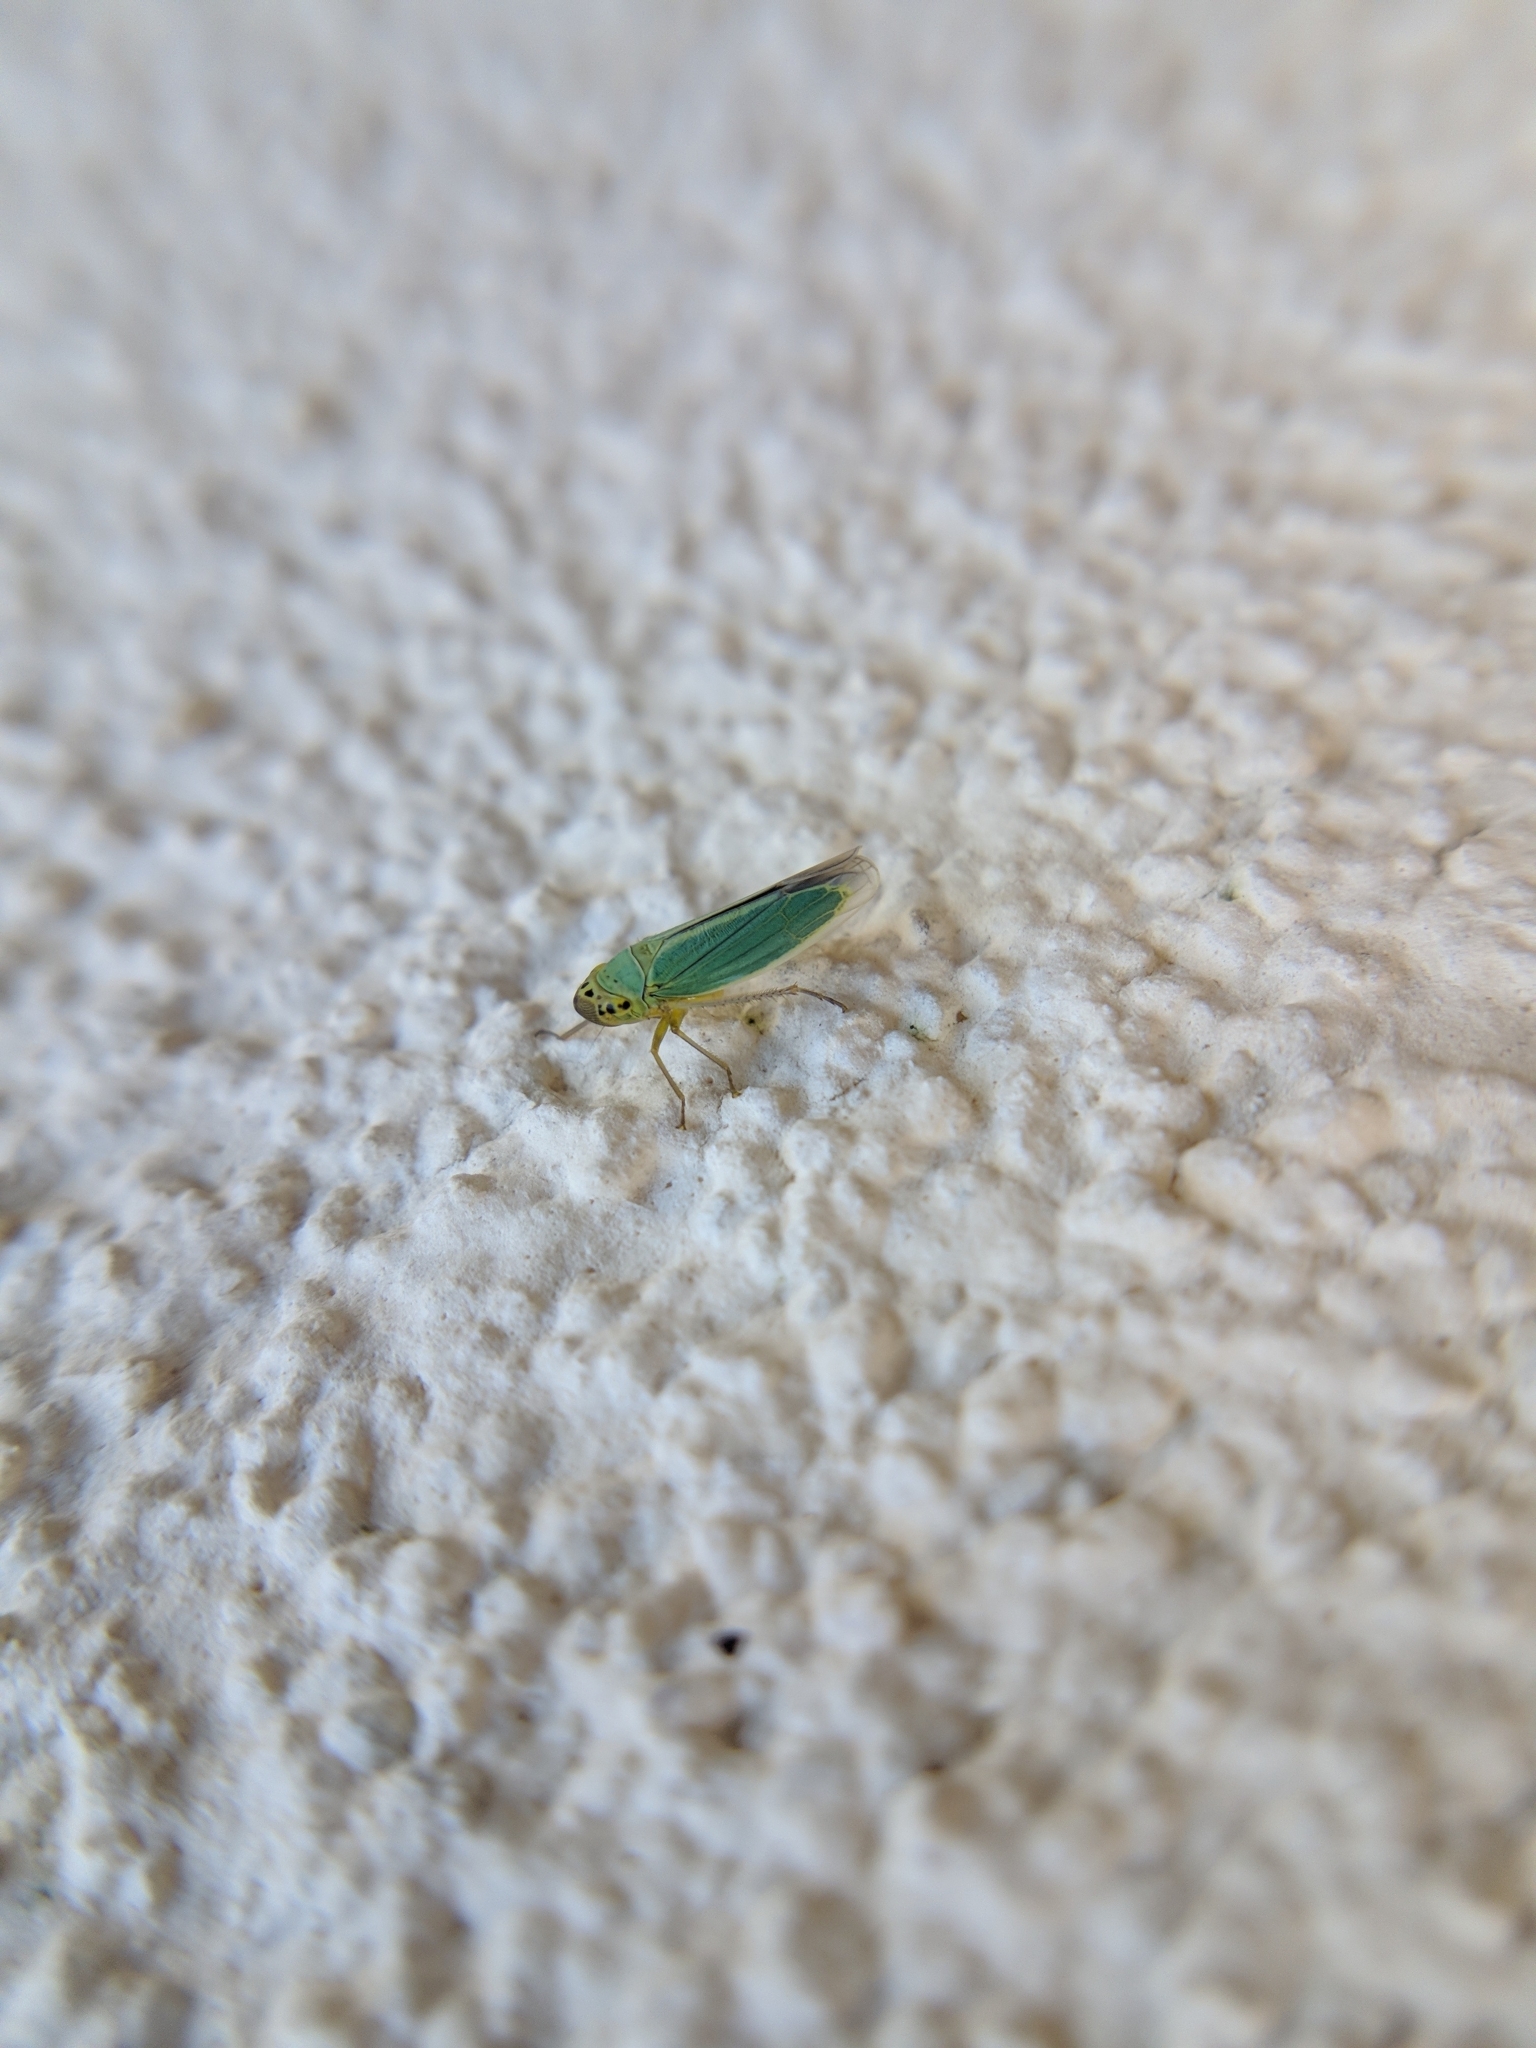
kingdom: Animalia
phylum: Arthropoda
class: Insecta
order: Hemiptera
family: Cicadellidae
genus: Cicadella
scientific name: Cicadella viridis
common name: Leafhopper
